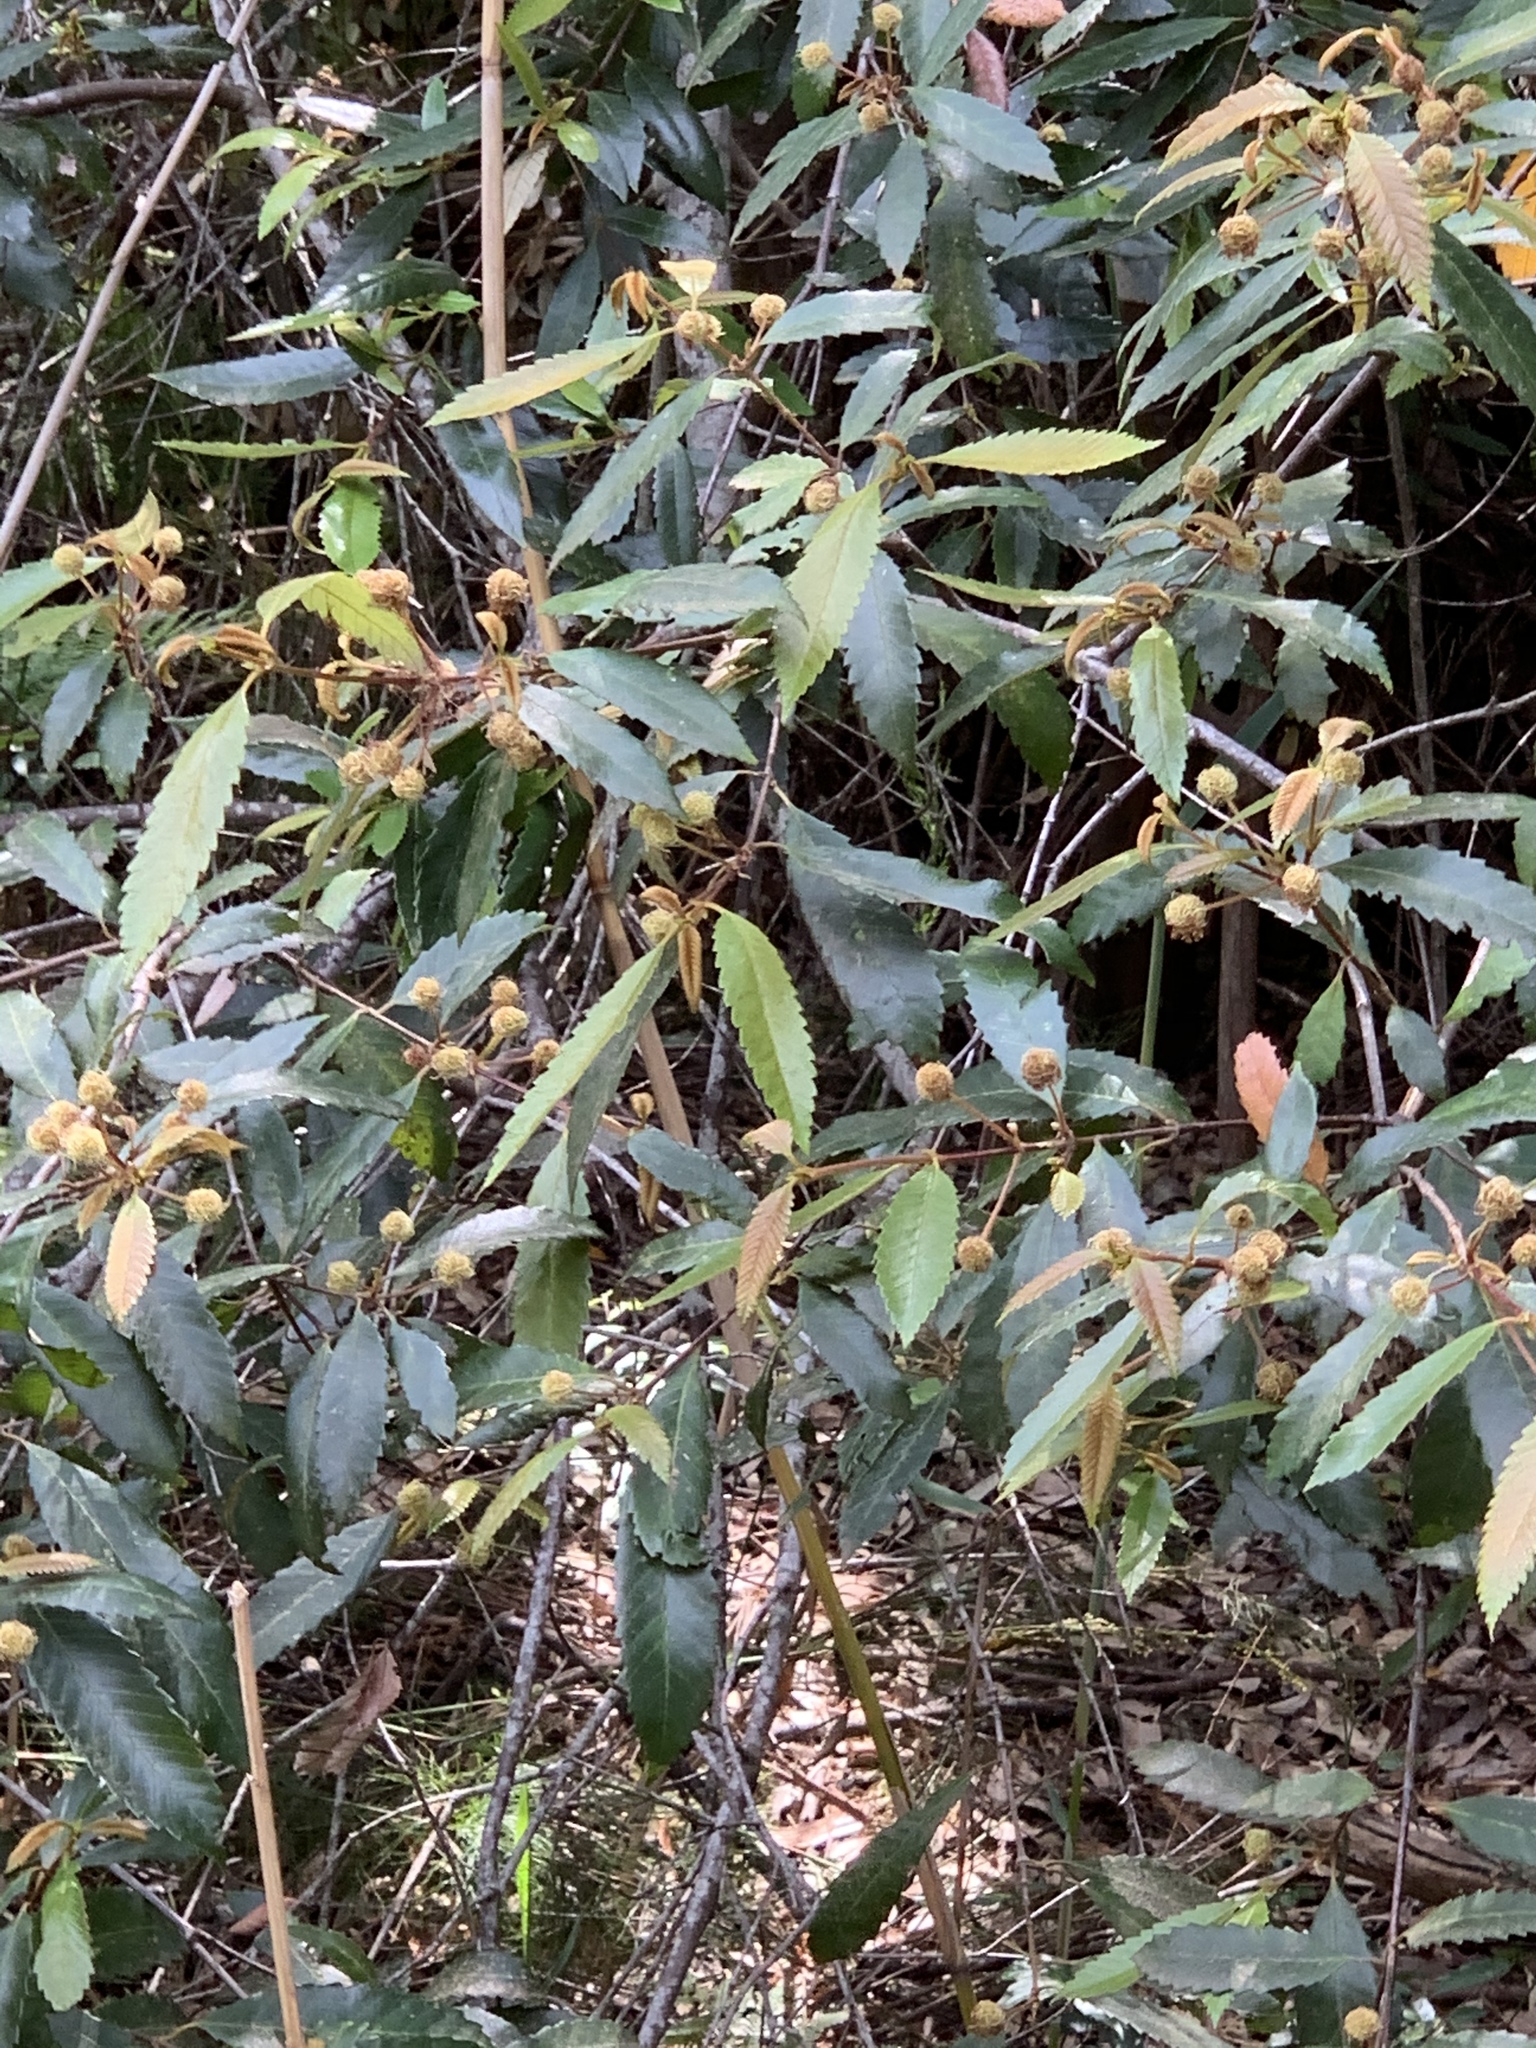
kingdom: Plantae
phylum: Tracheophyta
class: Magnoliopsida
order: Oxalidales
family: Cunoniaceae
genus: Callicoma
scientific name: Callicoma serratifolia
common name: Black wattle
